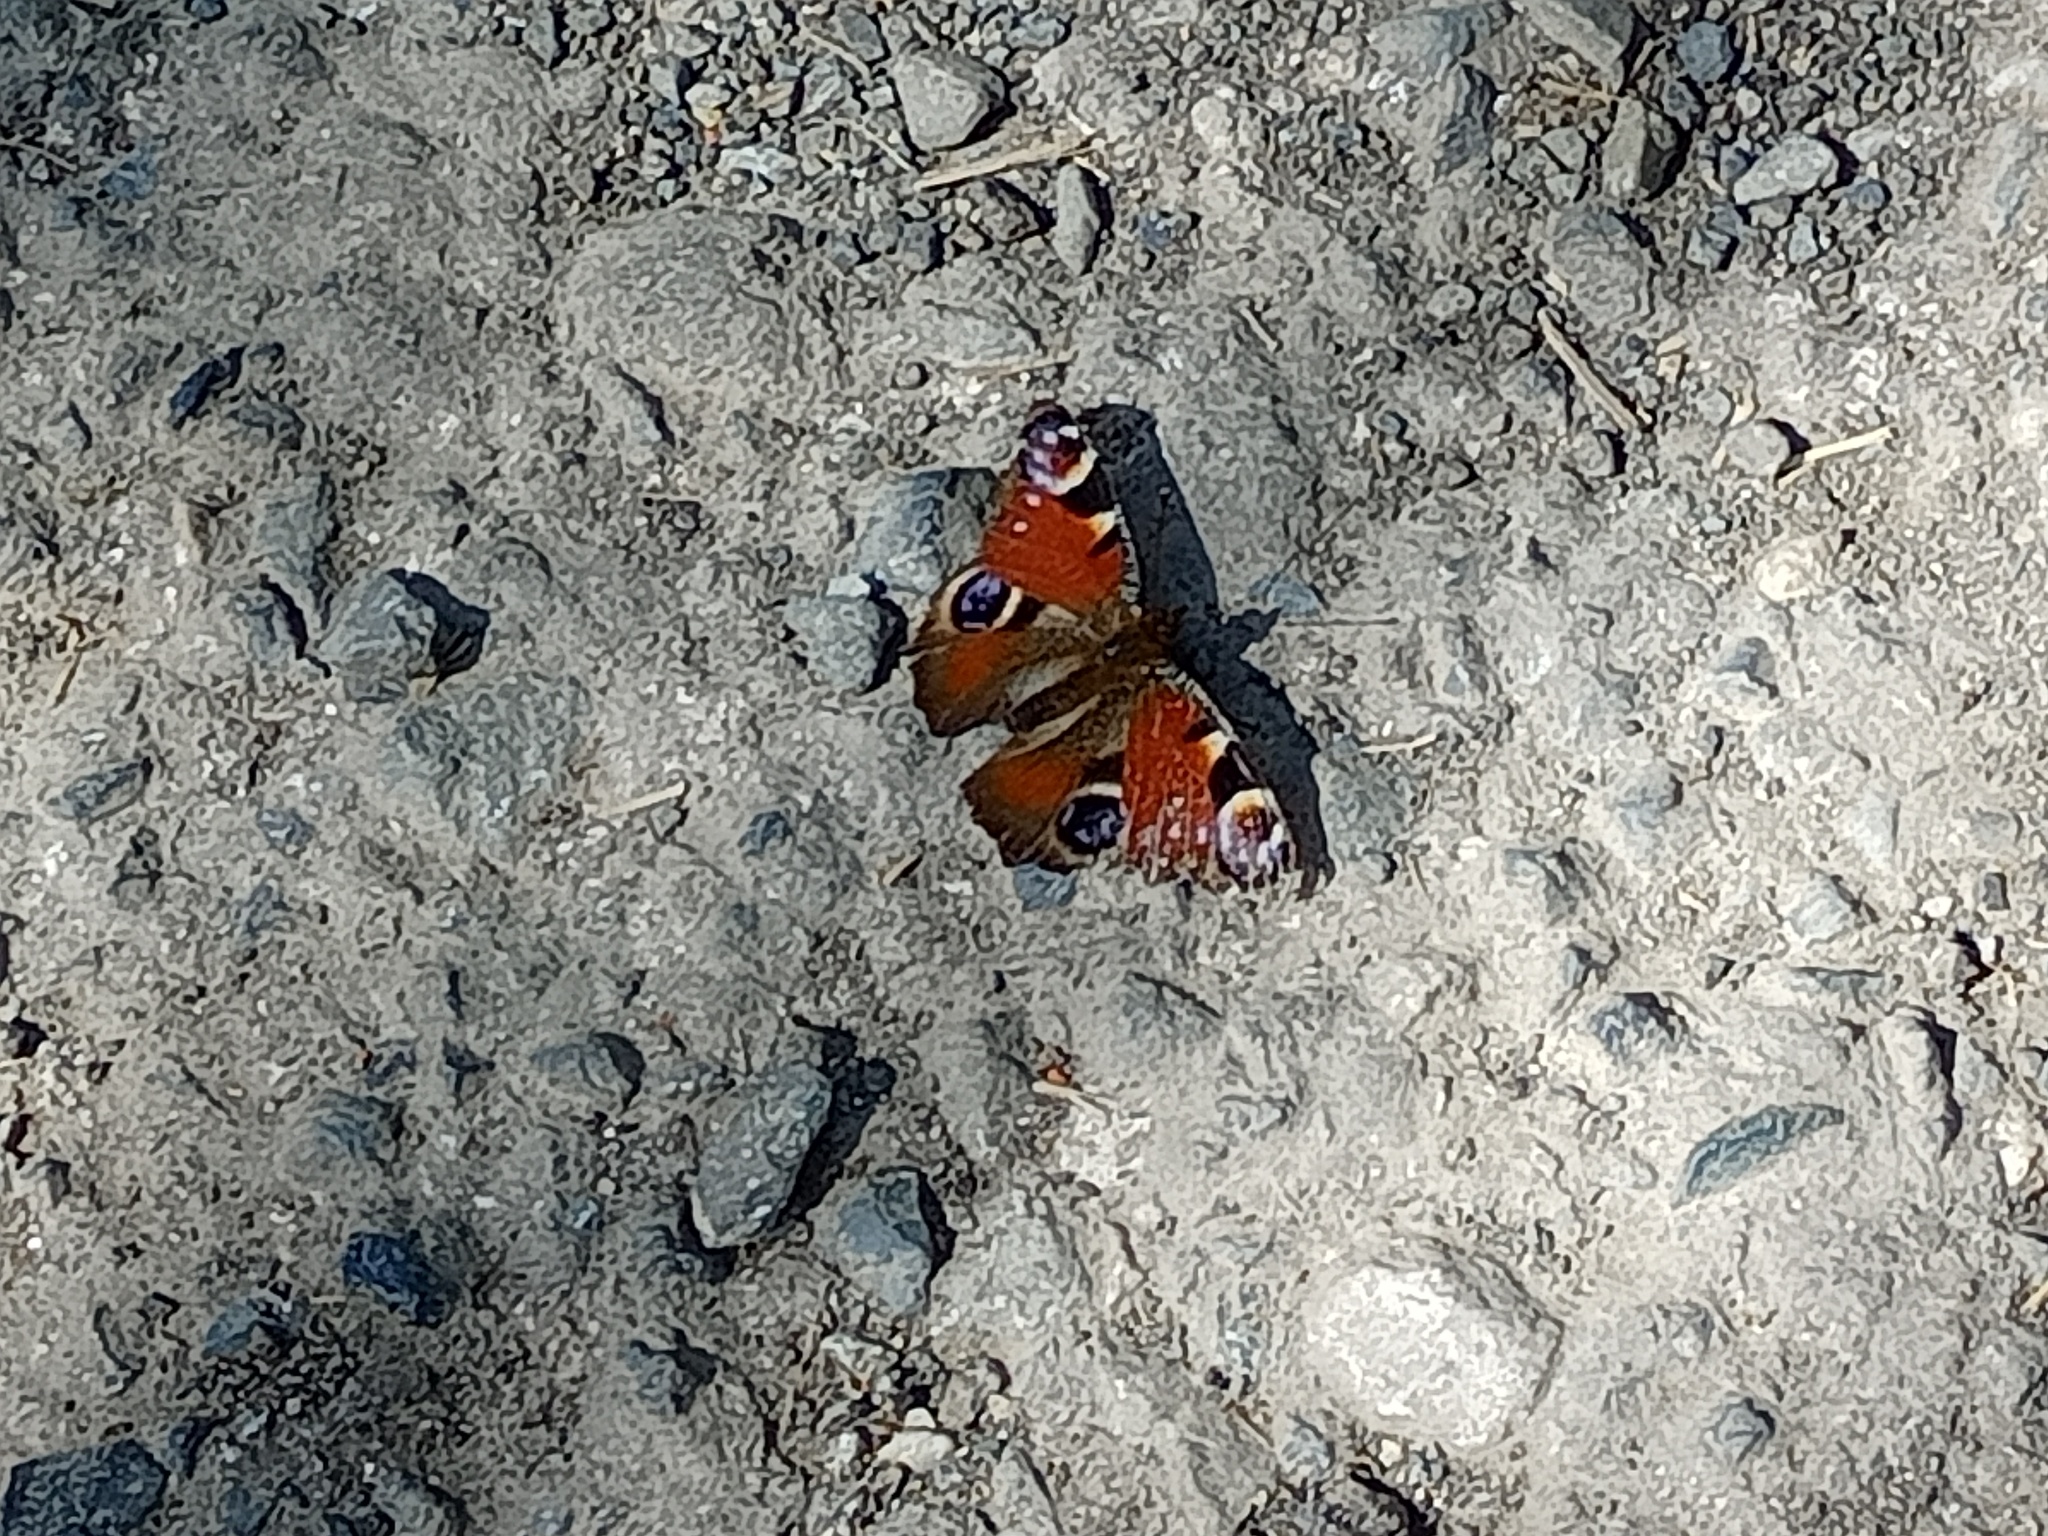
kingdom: Animalia
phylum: Arthropoda
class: Insecta
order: Lepidoptera
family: Nymphalidae
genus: Aglais
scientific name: Aglais io
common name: Peacock
